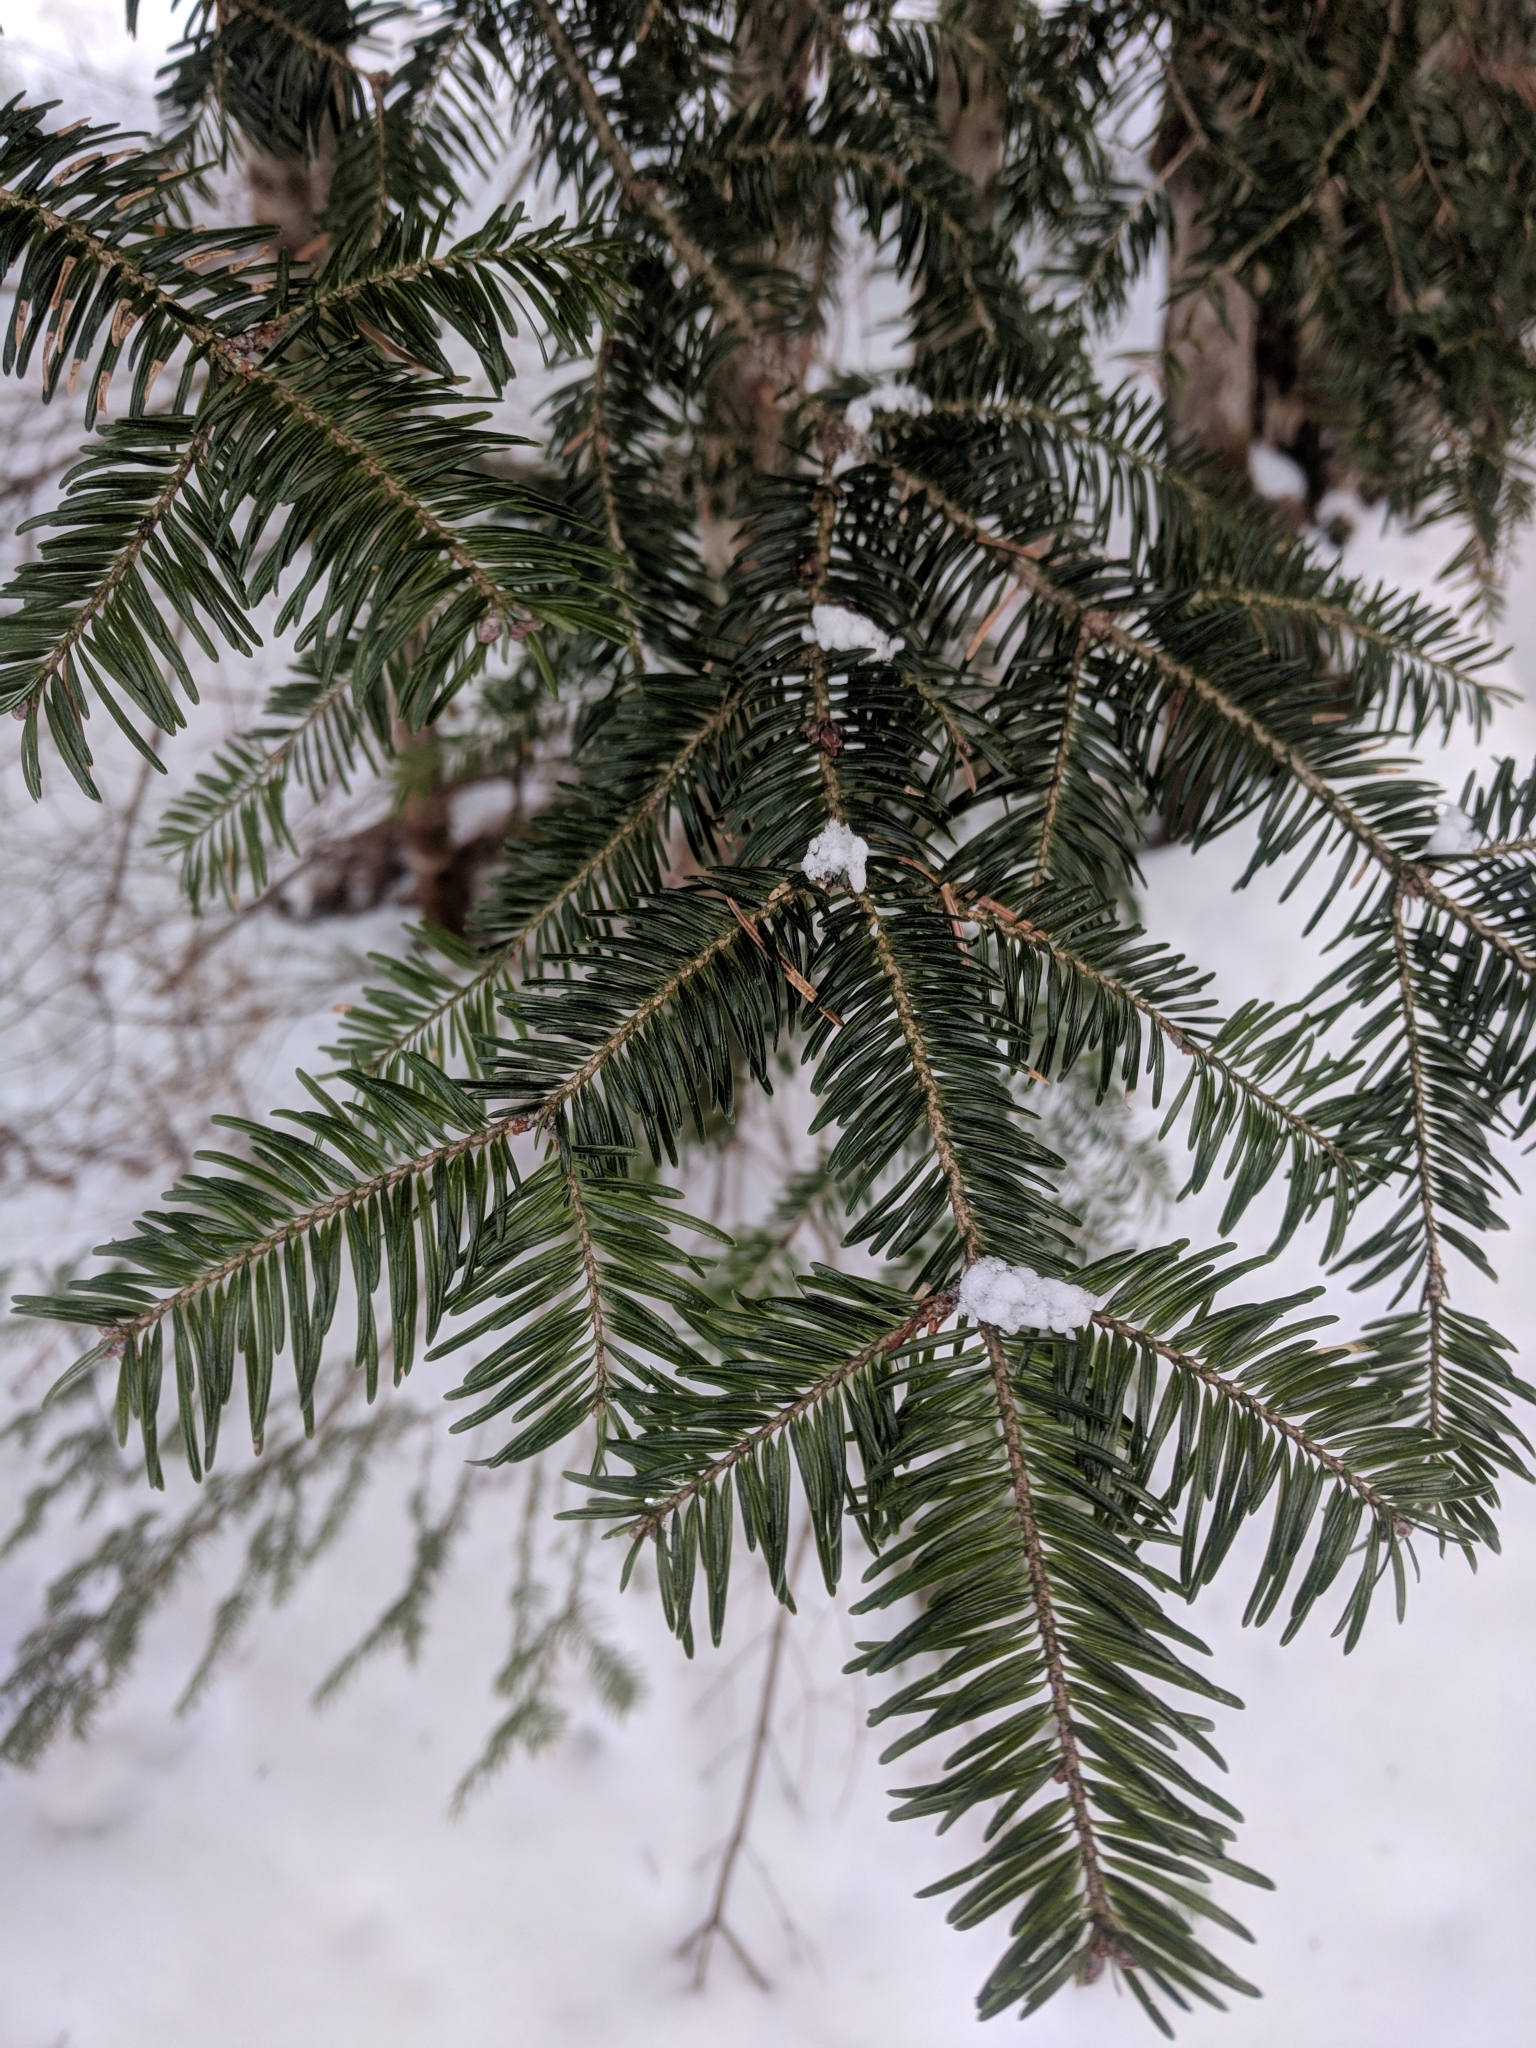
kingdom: Plantae
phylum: Tracheophyta
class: Pinopsida
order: Pinales
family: Pinaceae
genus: Abies
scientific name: Abies balsamea
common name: Balsam fir
